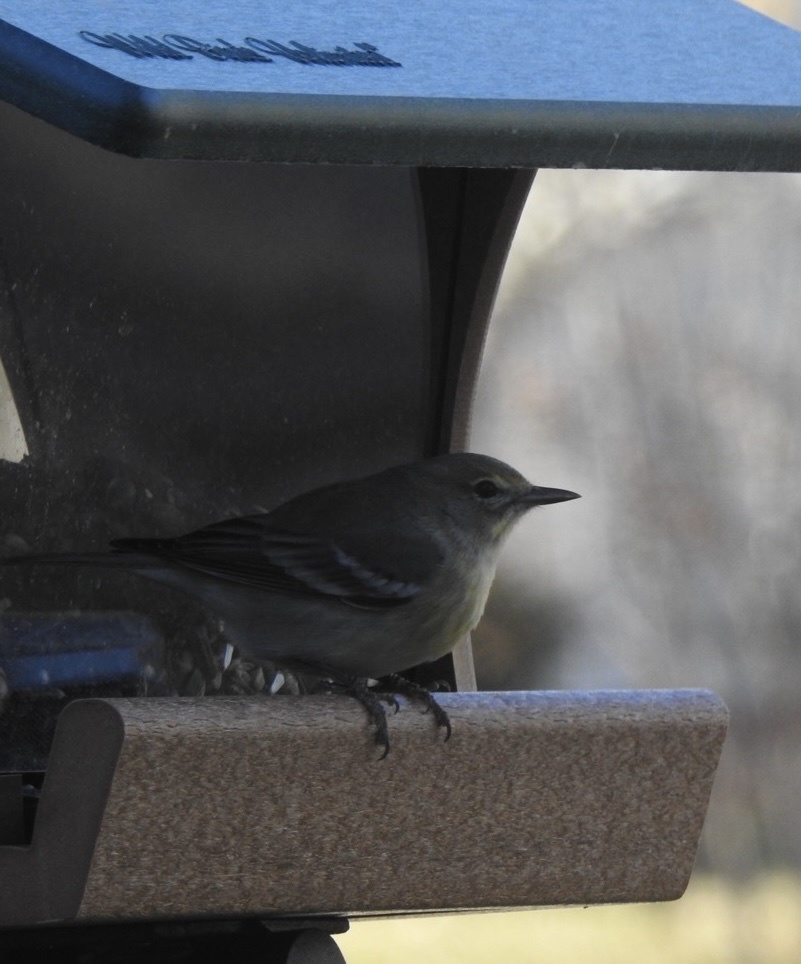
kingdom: Animalia
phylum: Chordata
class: Aves
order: Passeriformes
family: Parulidae
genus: Setophaga
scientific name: Setophaga pinus
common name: Pine warbler
